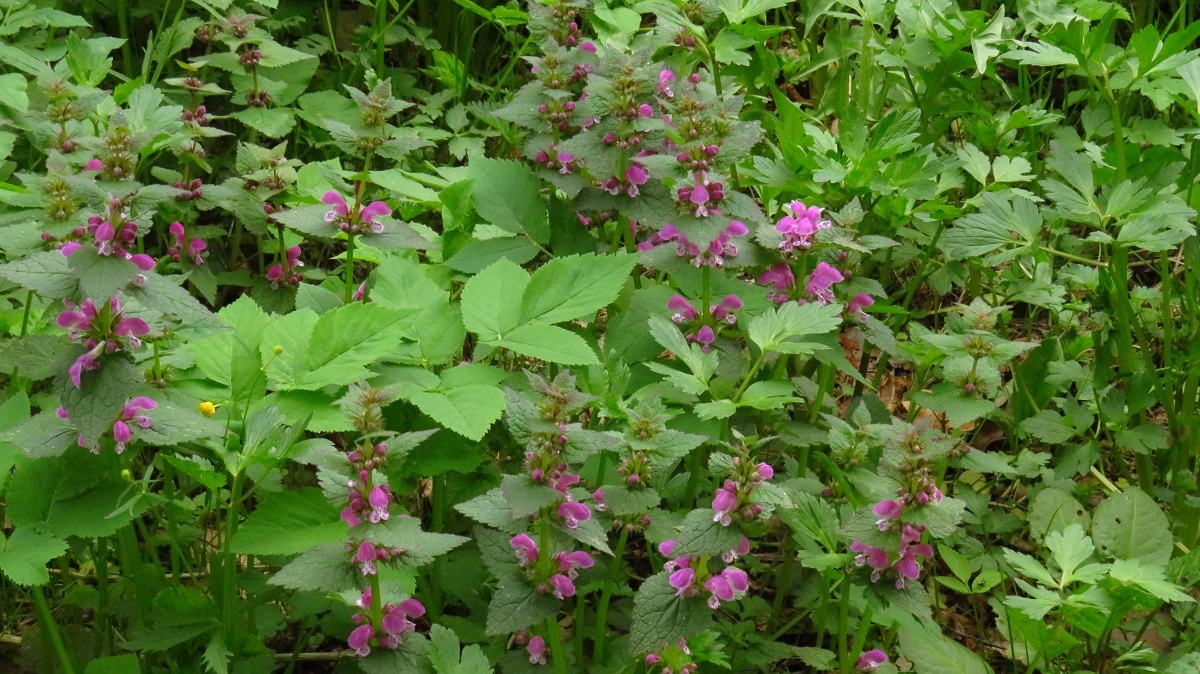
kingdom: Plantae
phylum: Tracheophyta
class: Magnoliopsida
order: Lamiales
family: Lamiaceae
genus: Lamium
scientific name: Lamium maculatum
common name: Spotted dead-nettle
